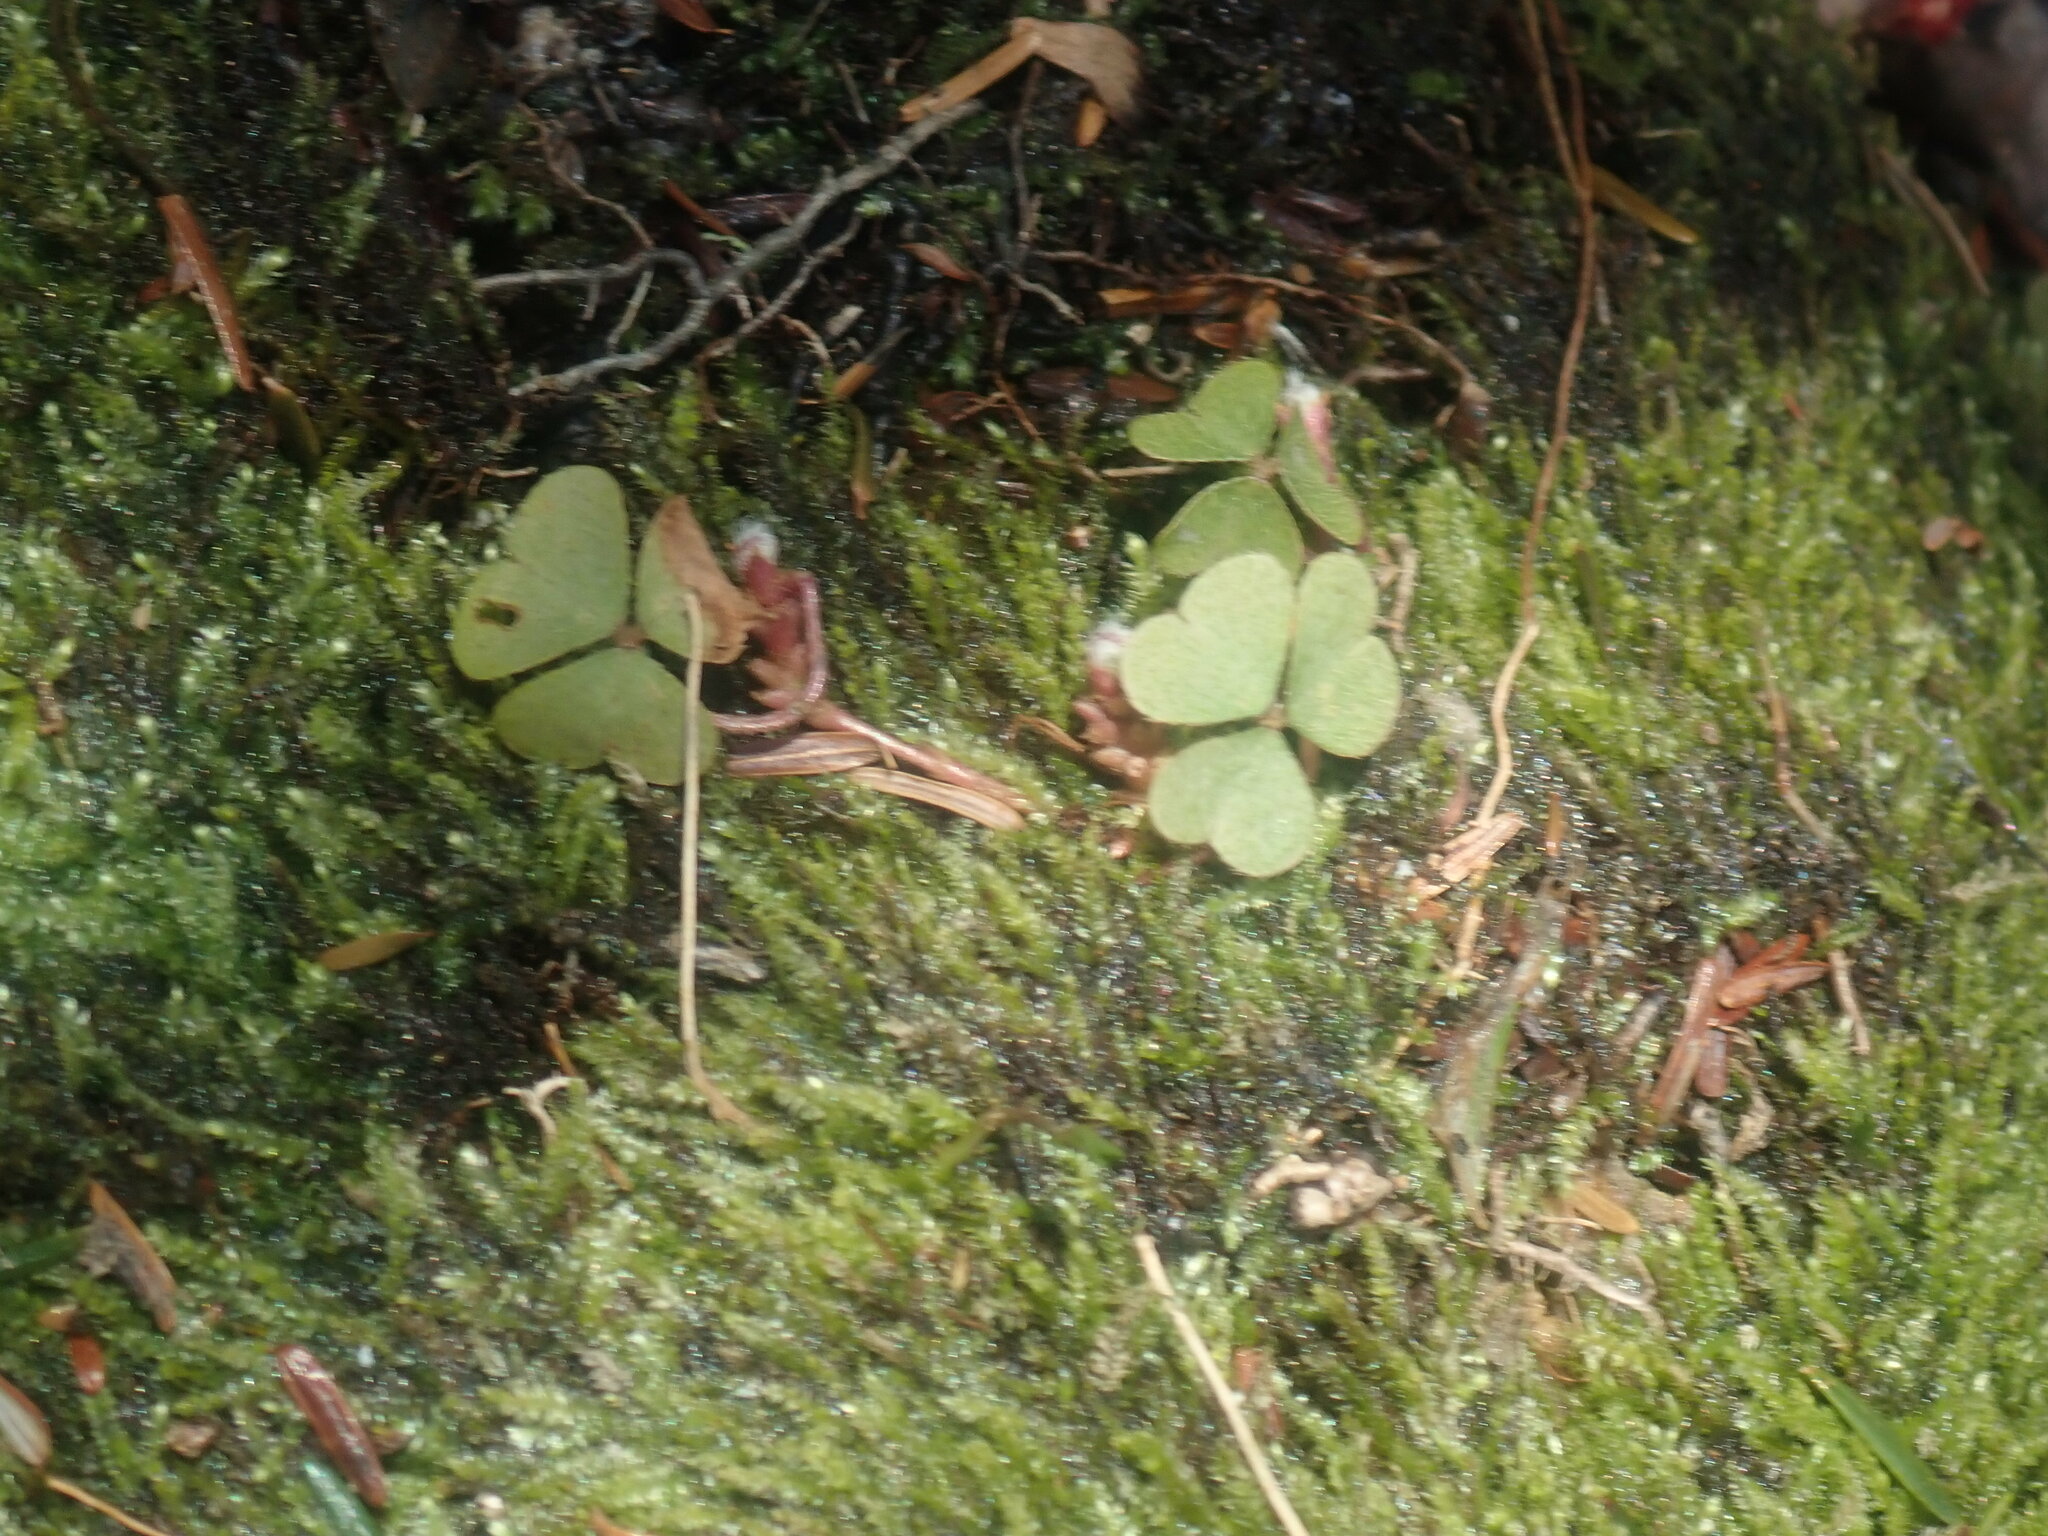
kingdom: Plantae
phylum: Tracheophyta
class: Magnoliopsida
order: Oxalidales
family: Oxalidaceae
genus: Oxalis
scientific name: Oxalis montana
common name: American wood-sorrel
